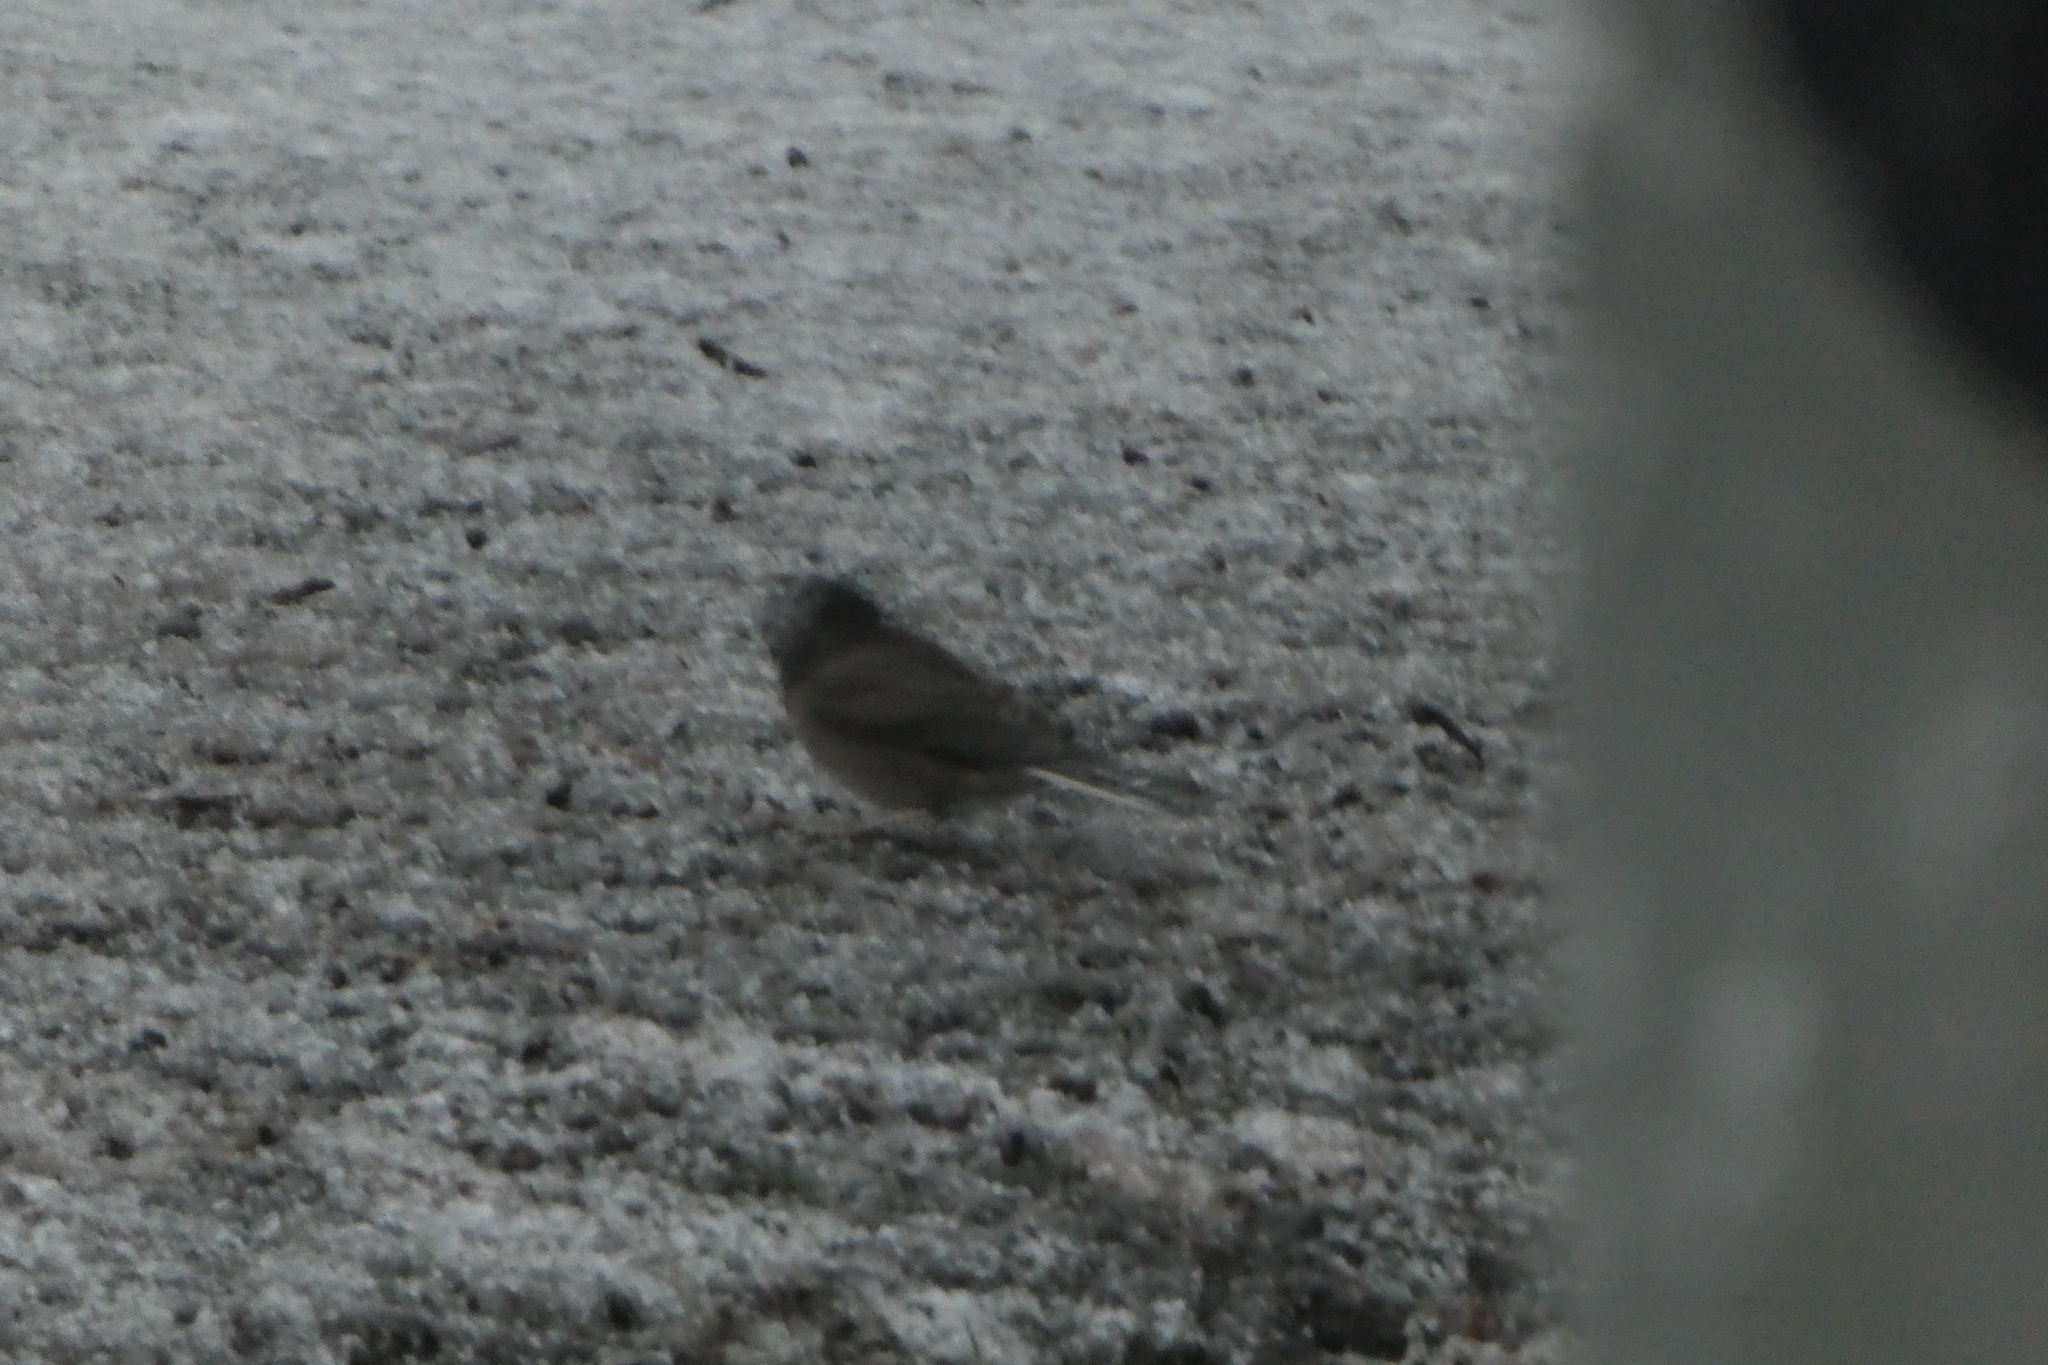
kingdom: Animalia
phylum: Chordata
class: Aves
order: Passeriformes
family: Passerellidae
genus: Junco
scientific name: Junco hyemalis
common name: Dark-eyed junco
